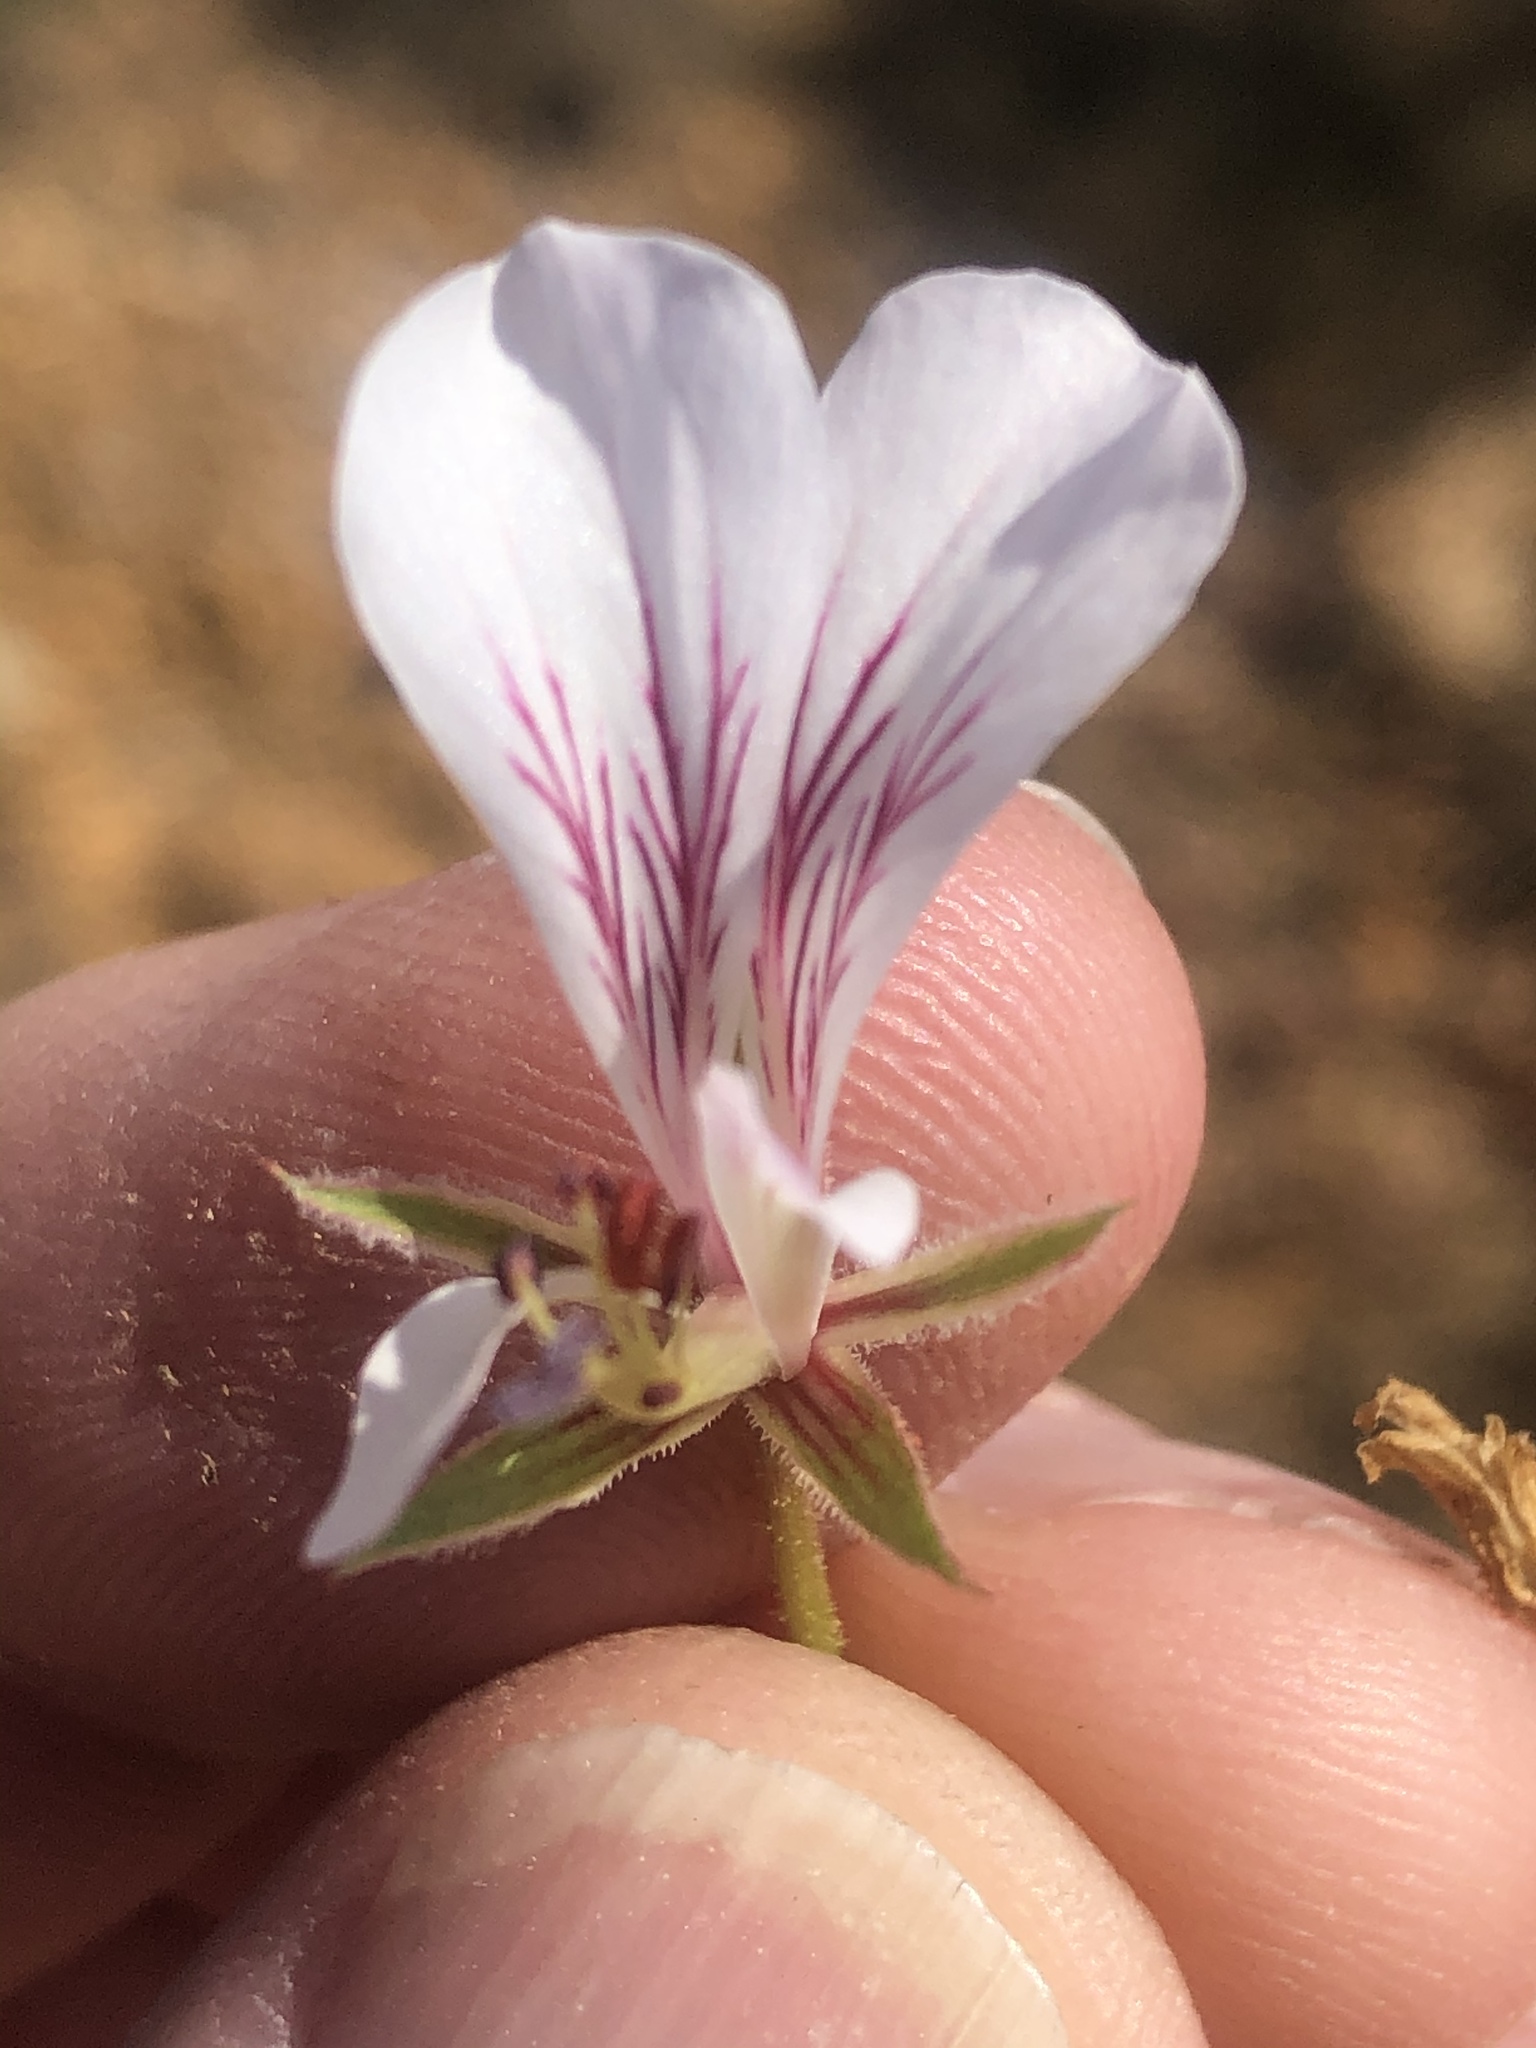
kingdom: Plantae
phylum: Tracheophyta
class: Magnoliopsida
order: Geraniales
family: Geraniaceae
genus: Pelargonium
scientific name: Pelargonium caucalifolium
